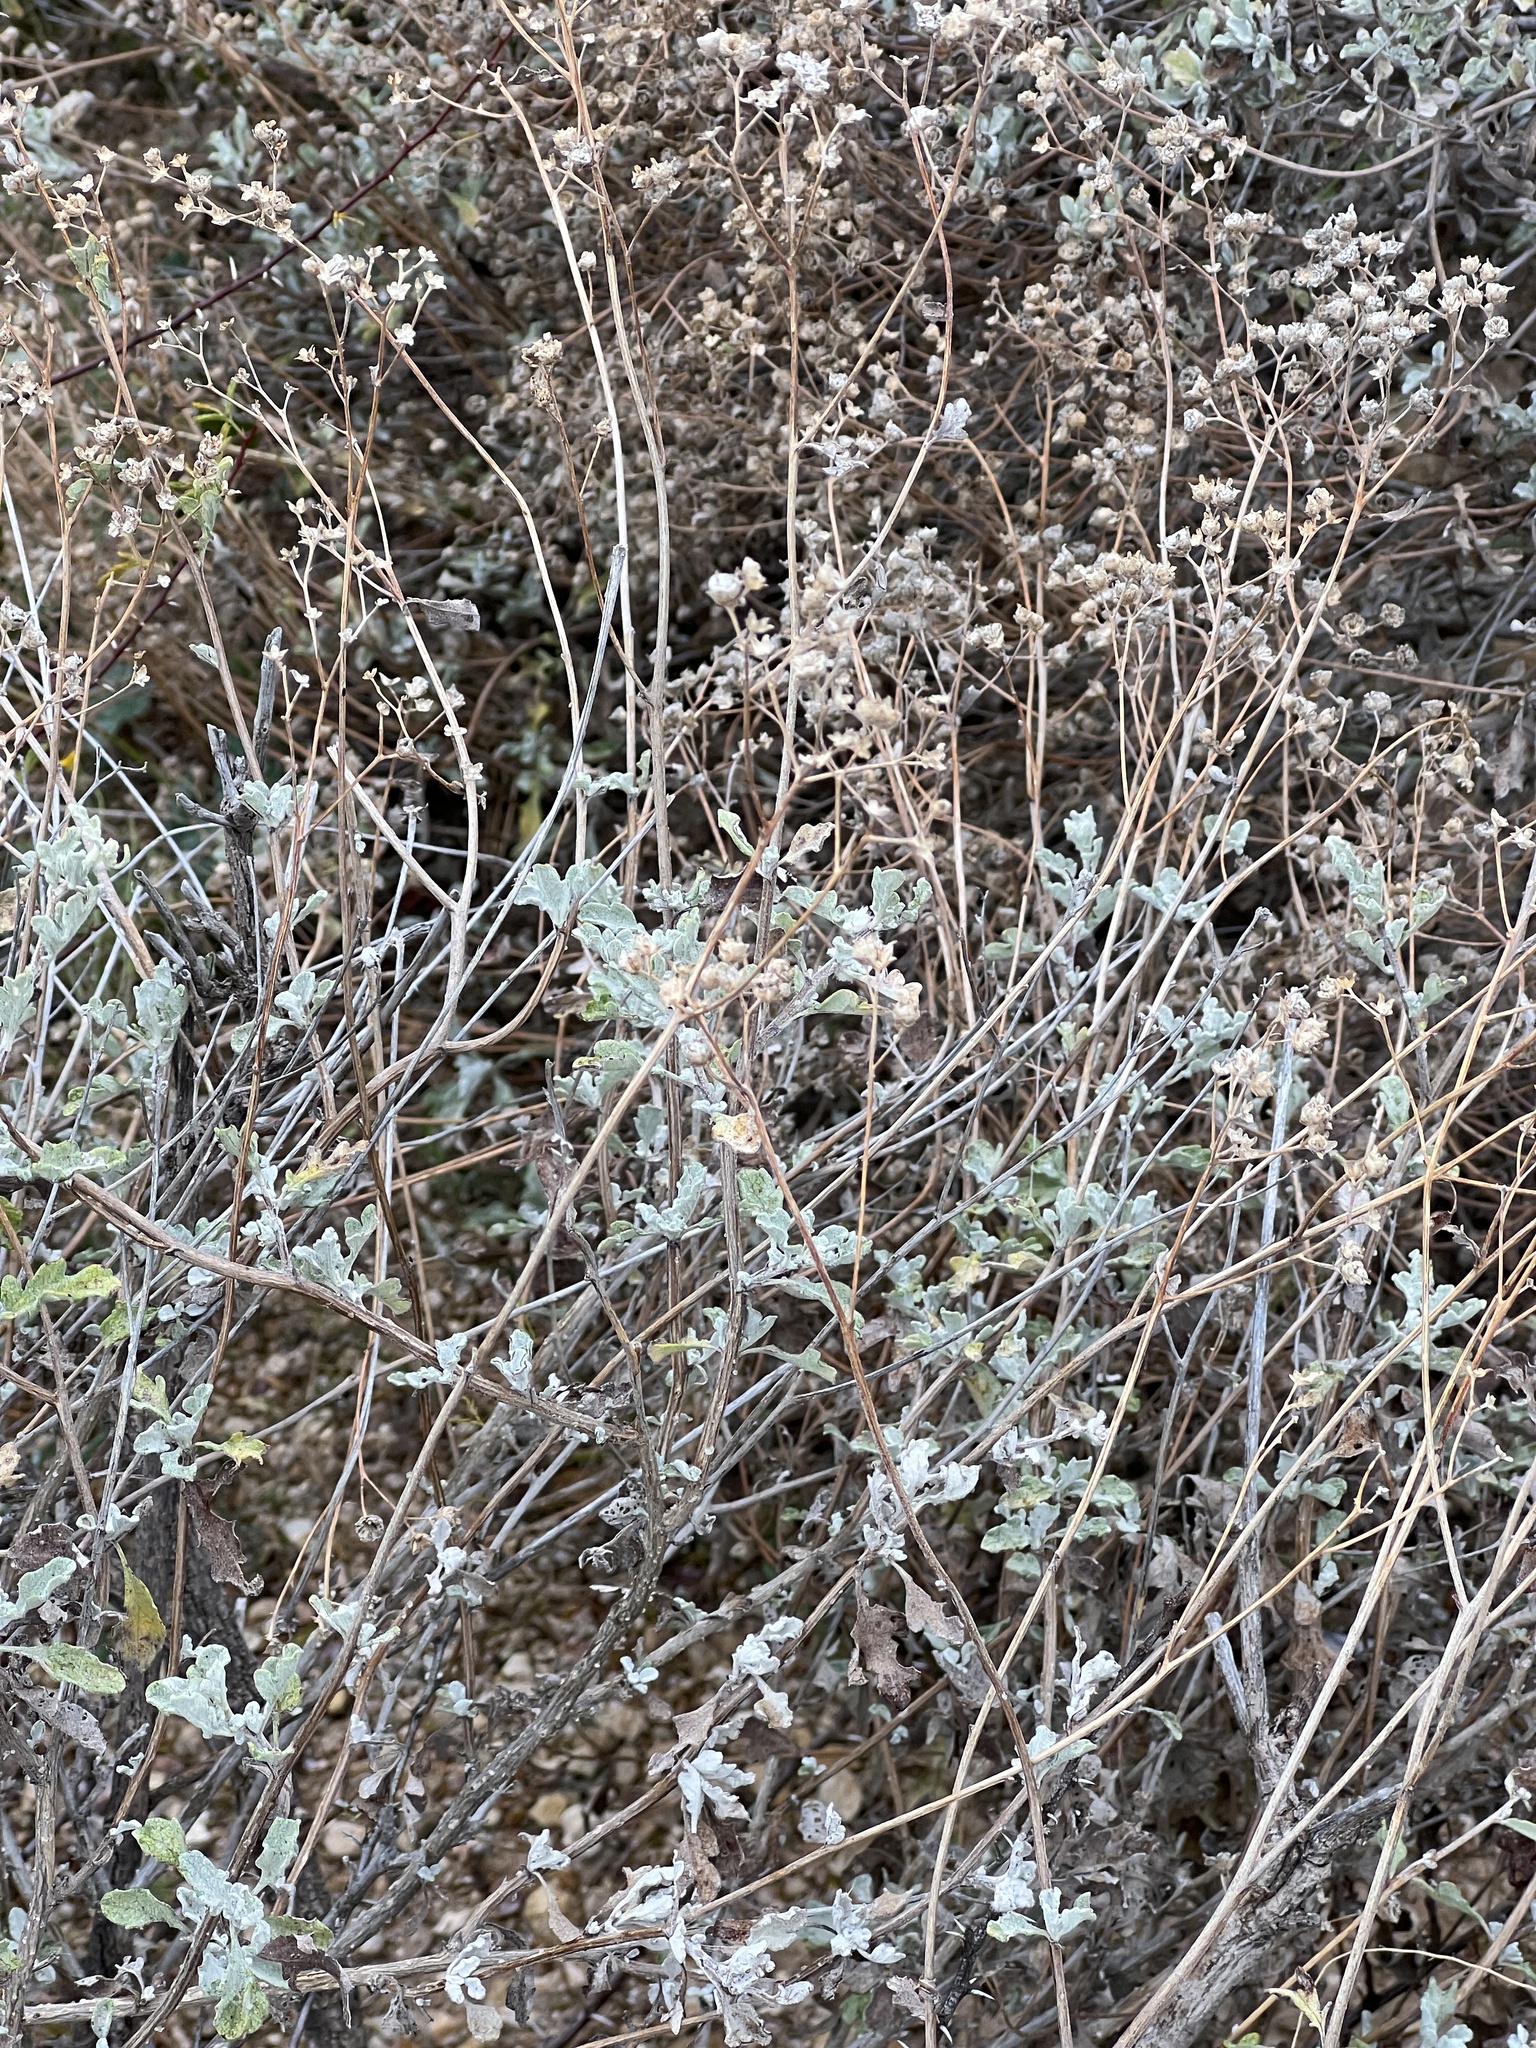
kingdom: Plantae
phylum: Tracheophyta
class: Magnoliopsida
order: Asterales
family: Asteraceae
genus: Parthenium
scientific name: Parthenium incanum
